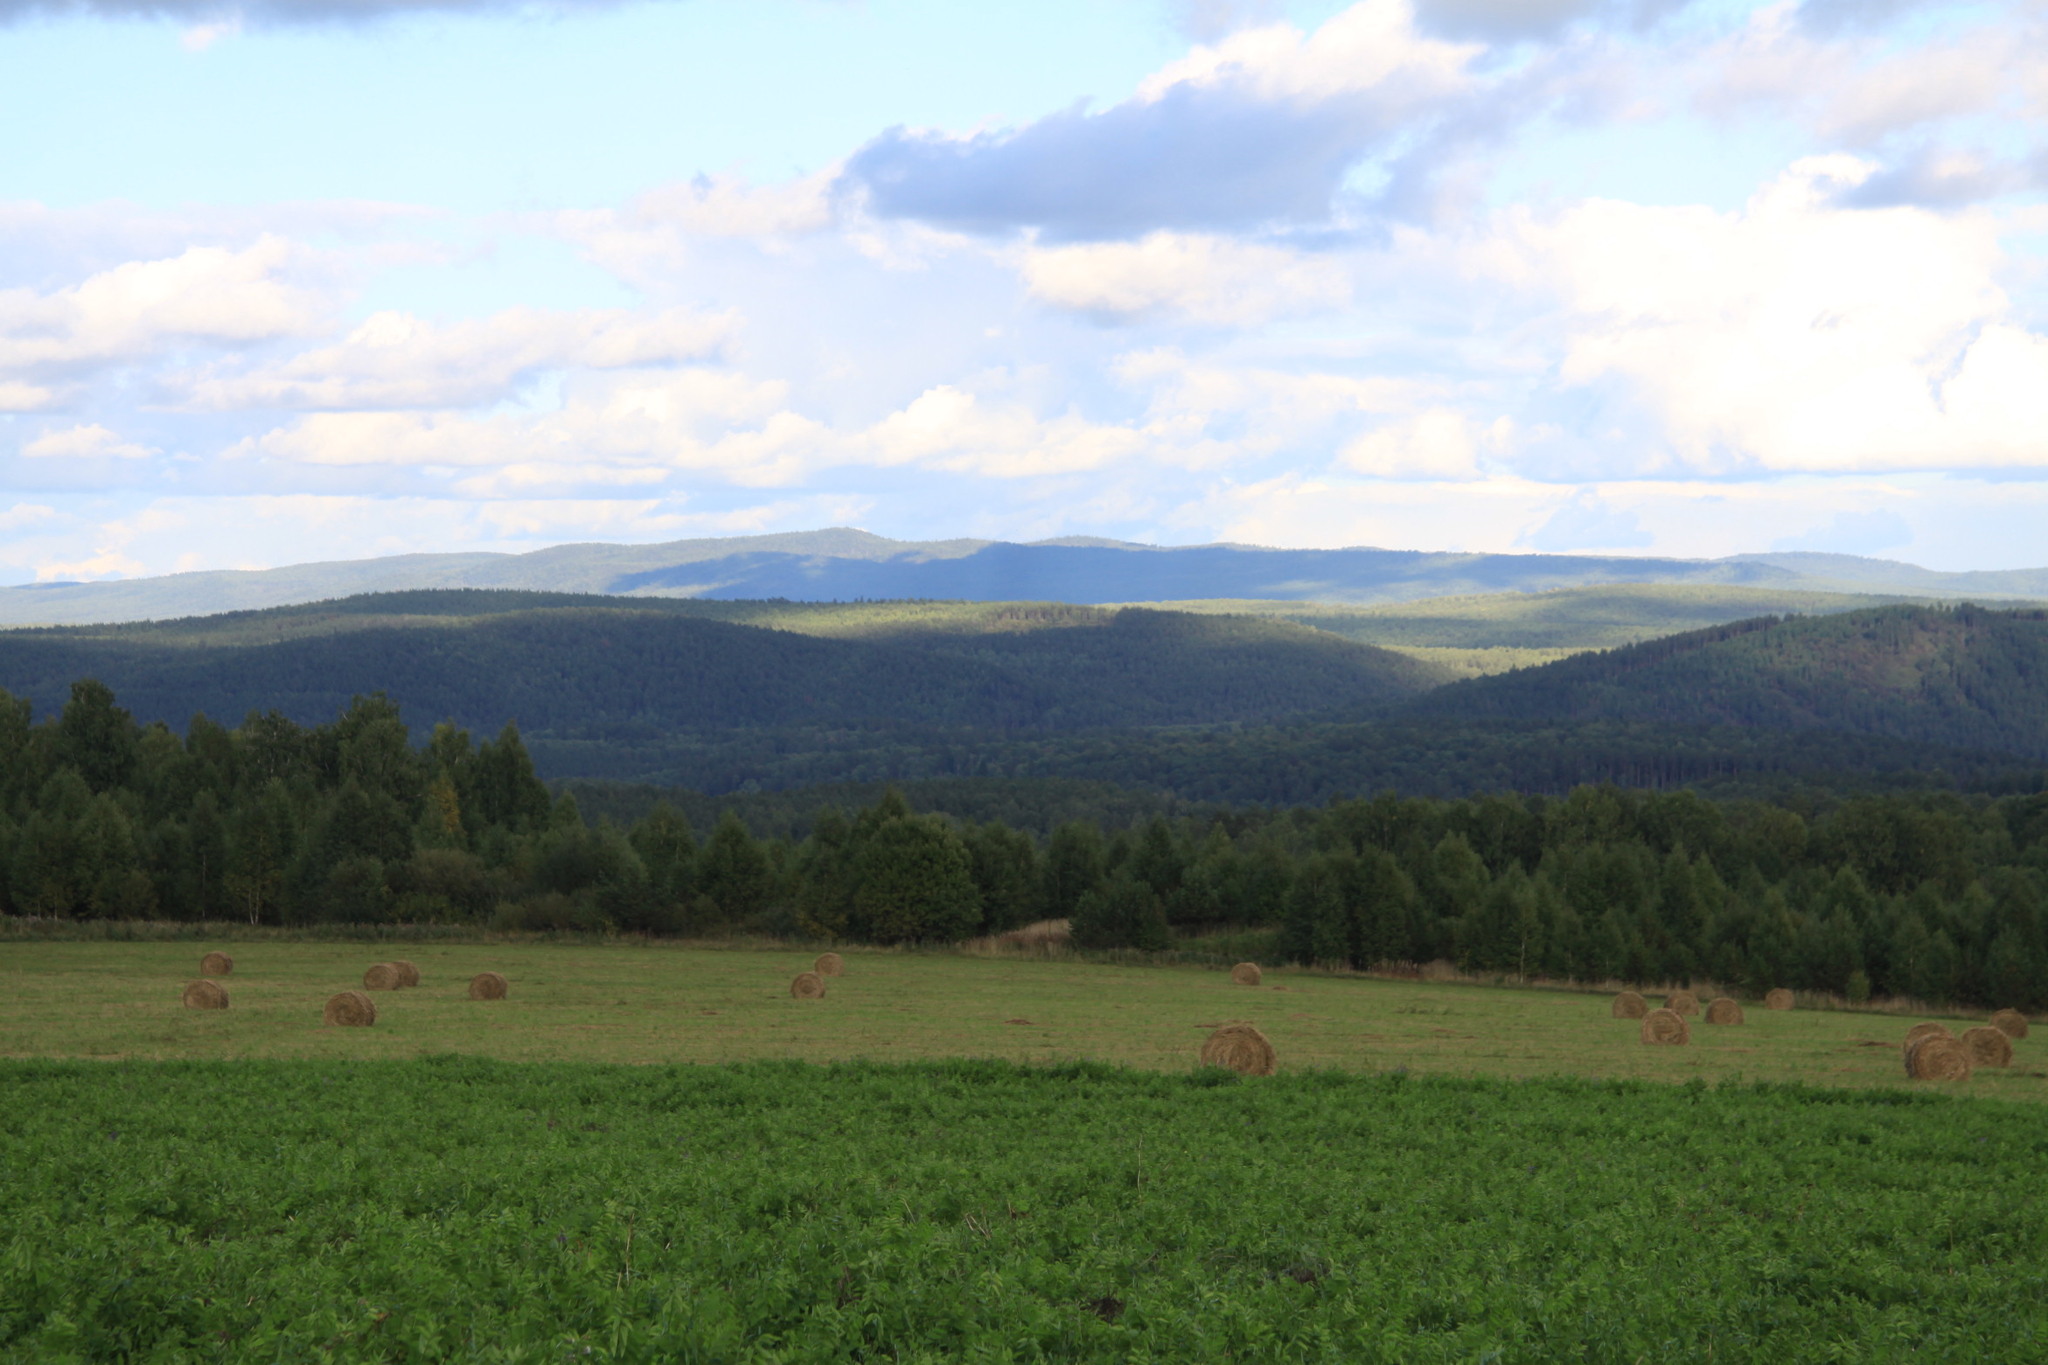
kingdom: Plantae
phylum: Tracheophyta
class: Pinopsida
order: Pinales
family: Pinaceae
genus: Pinus
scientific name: Pinus sylvestris
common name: Scots pine
